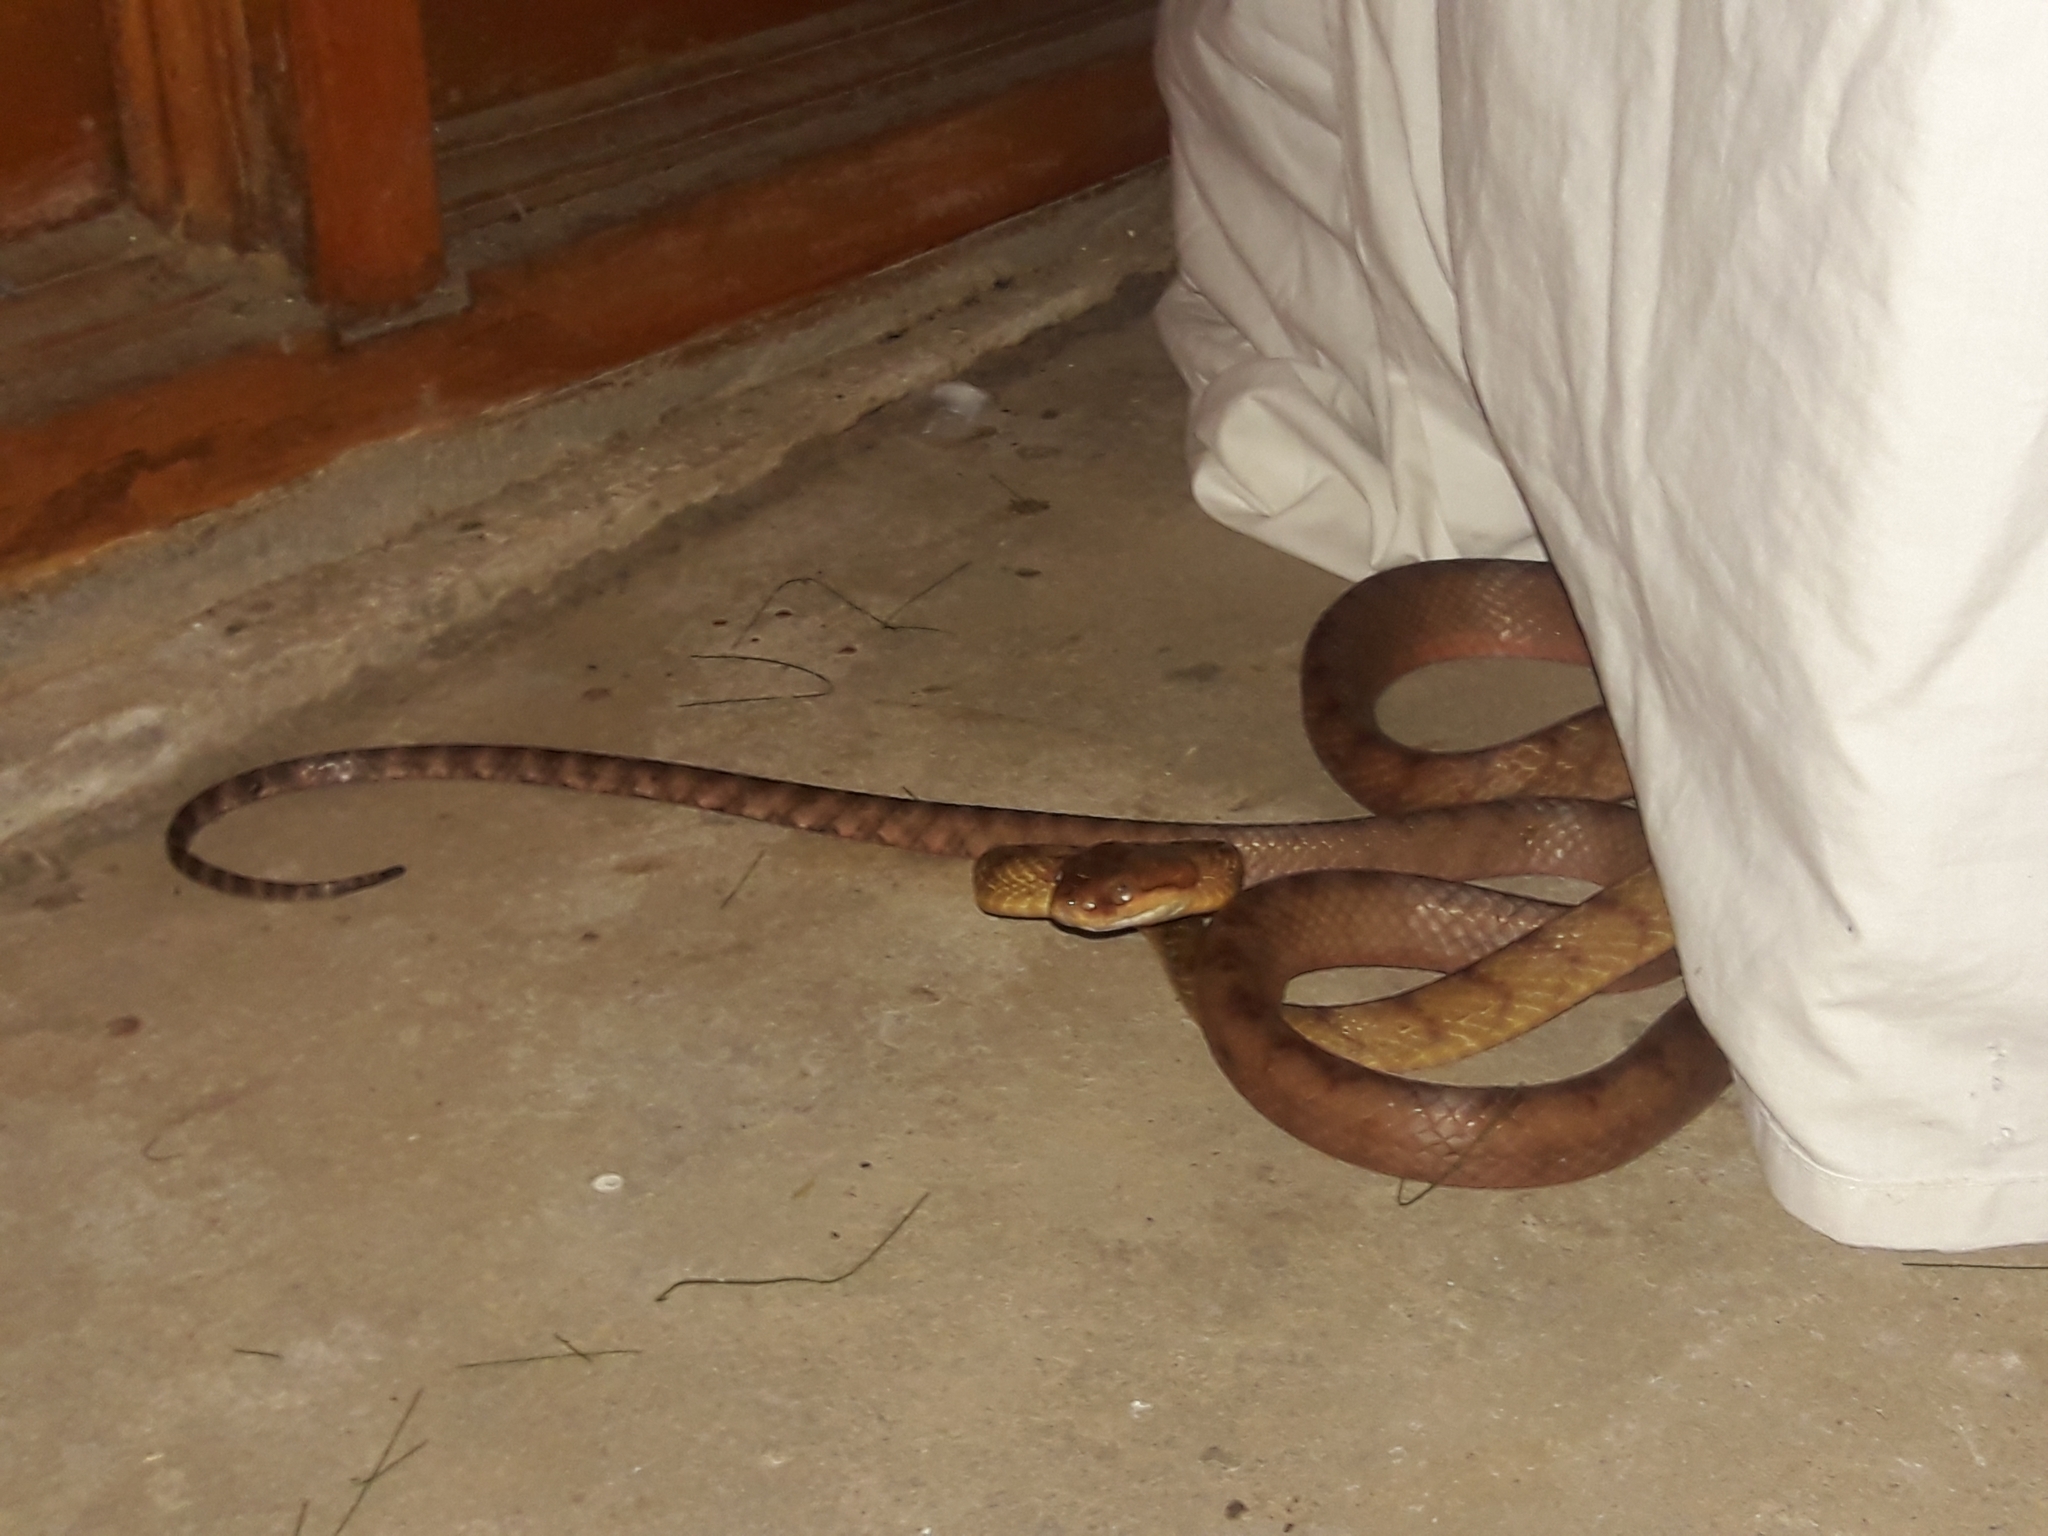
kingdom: Animalia
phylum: Chordata
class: Squamata
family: Colubridae
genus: Boiga
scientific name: Boiga irregularis
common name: Brown tree snake
